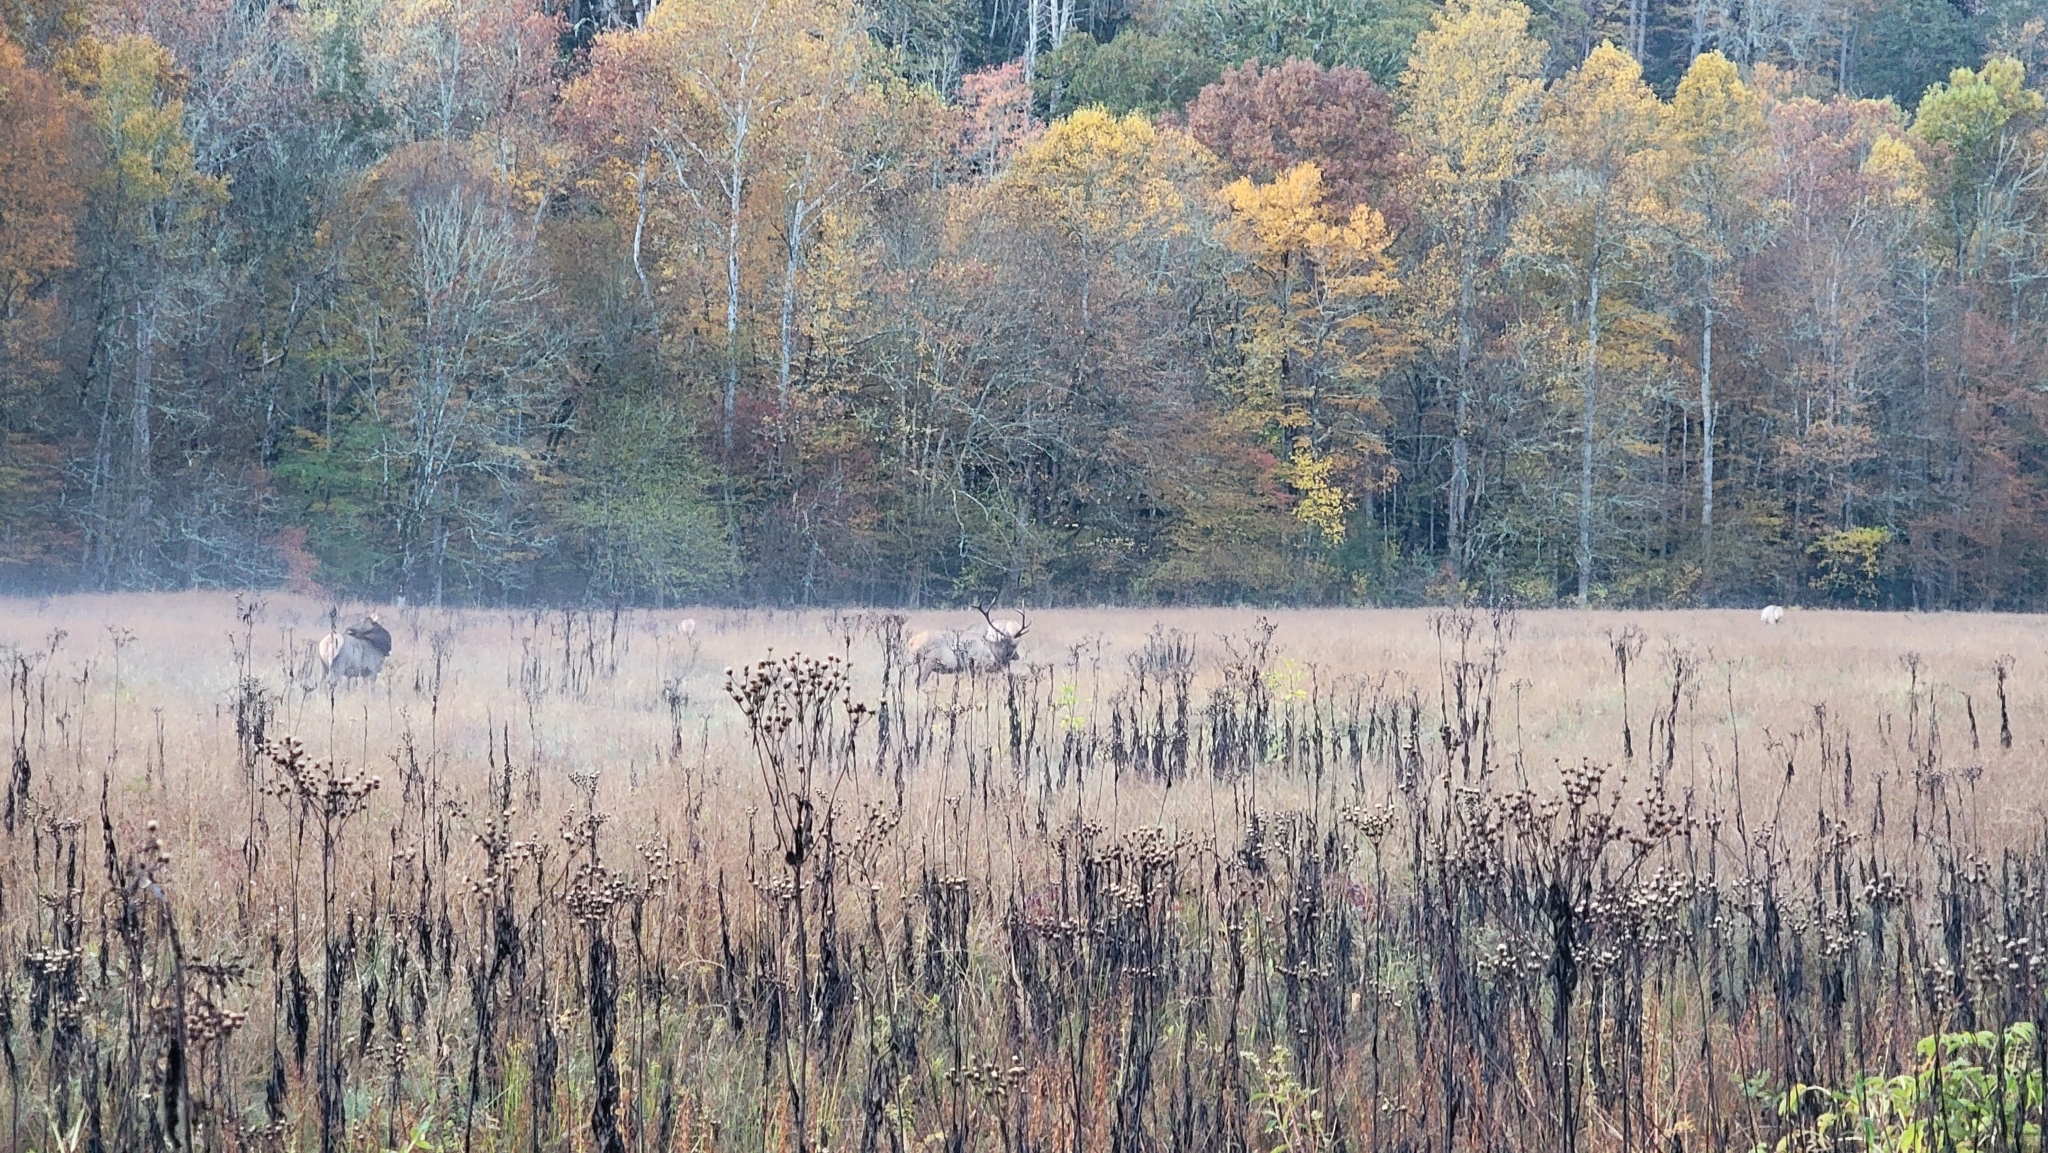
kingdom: Animalia
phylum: Chordata
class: Mammalia
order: Artiodactyla
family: Cervidae
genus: Cervus
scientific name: Cervus elaphus
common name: Red deer
